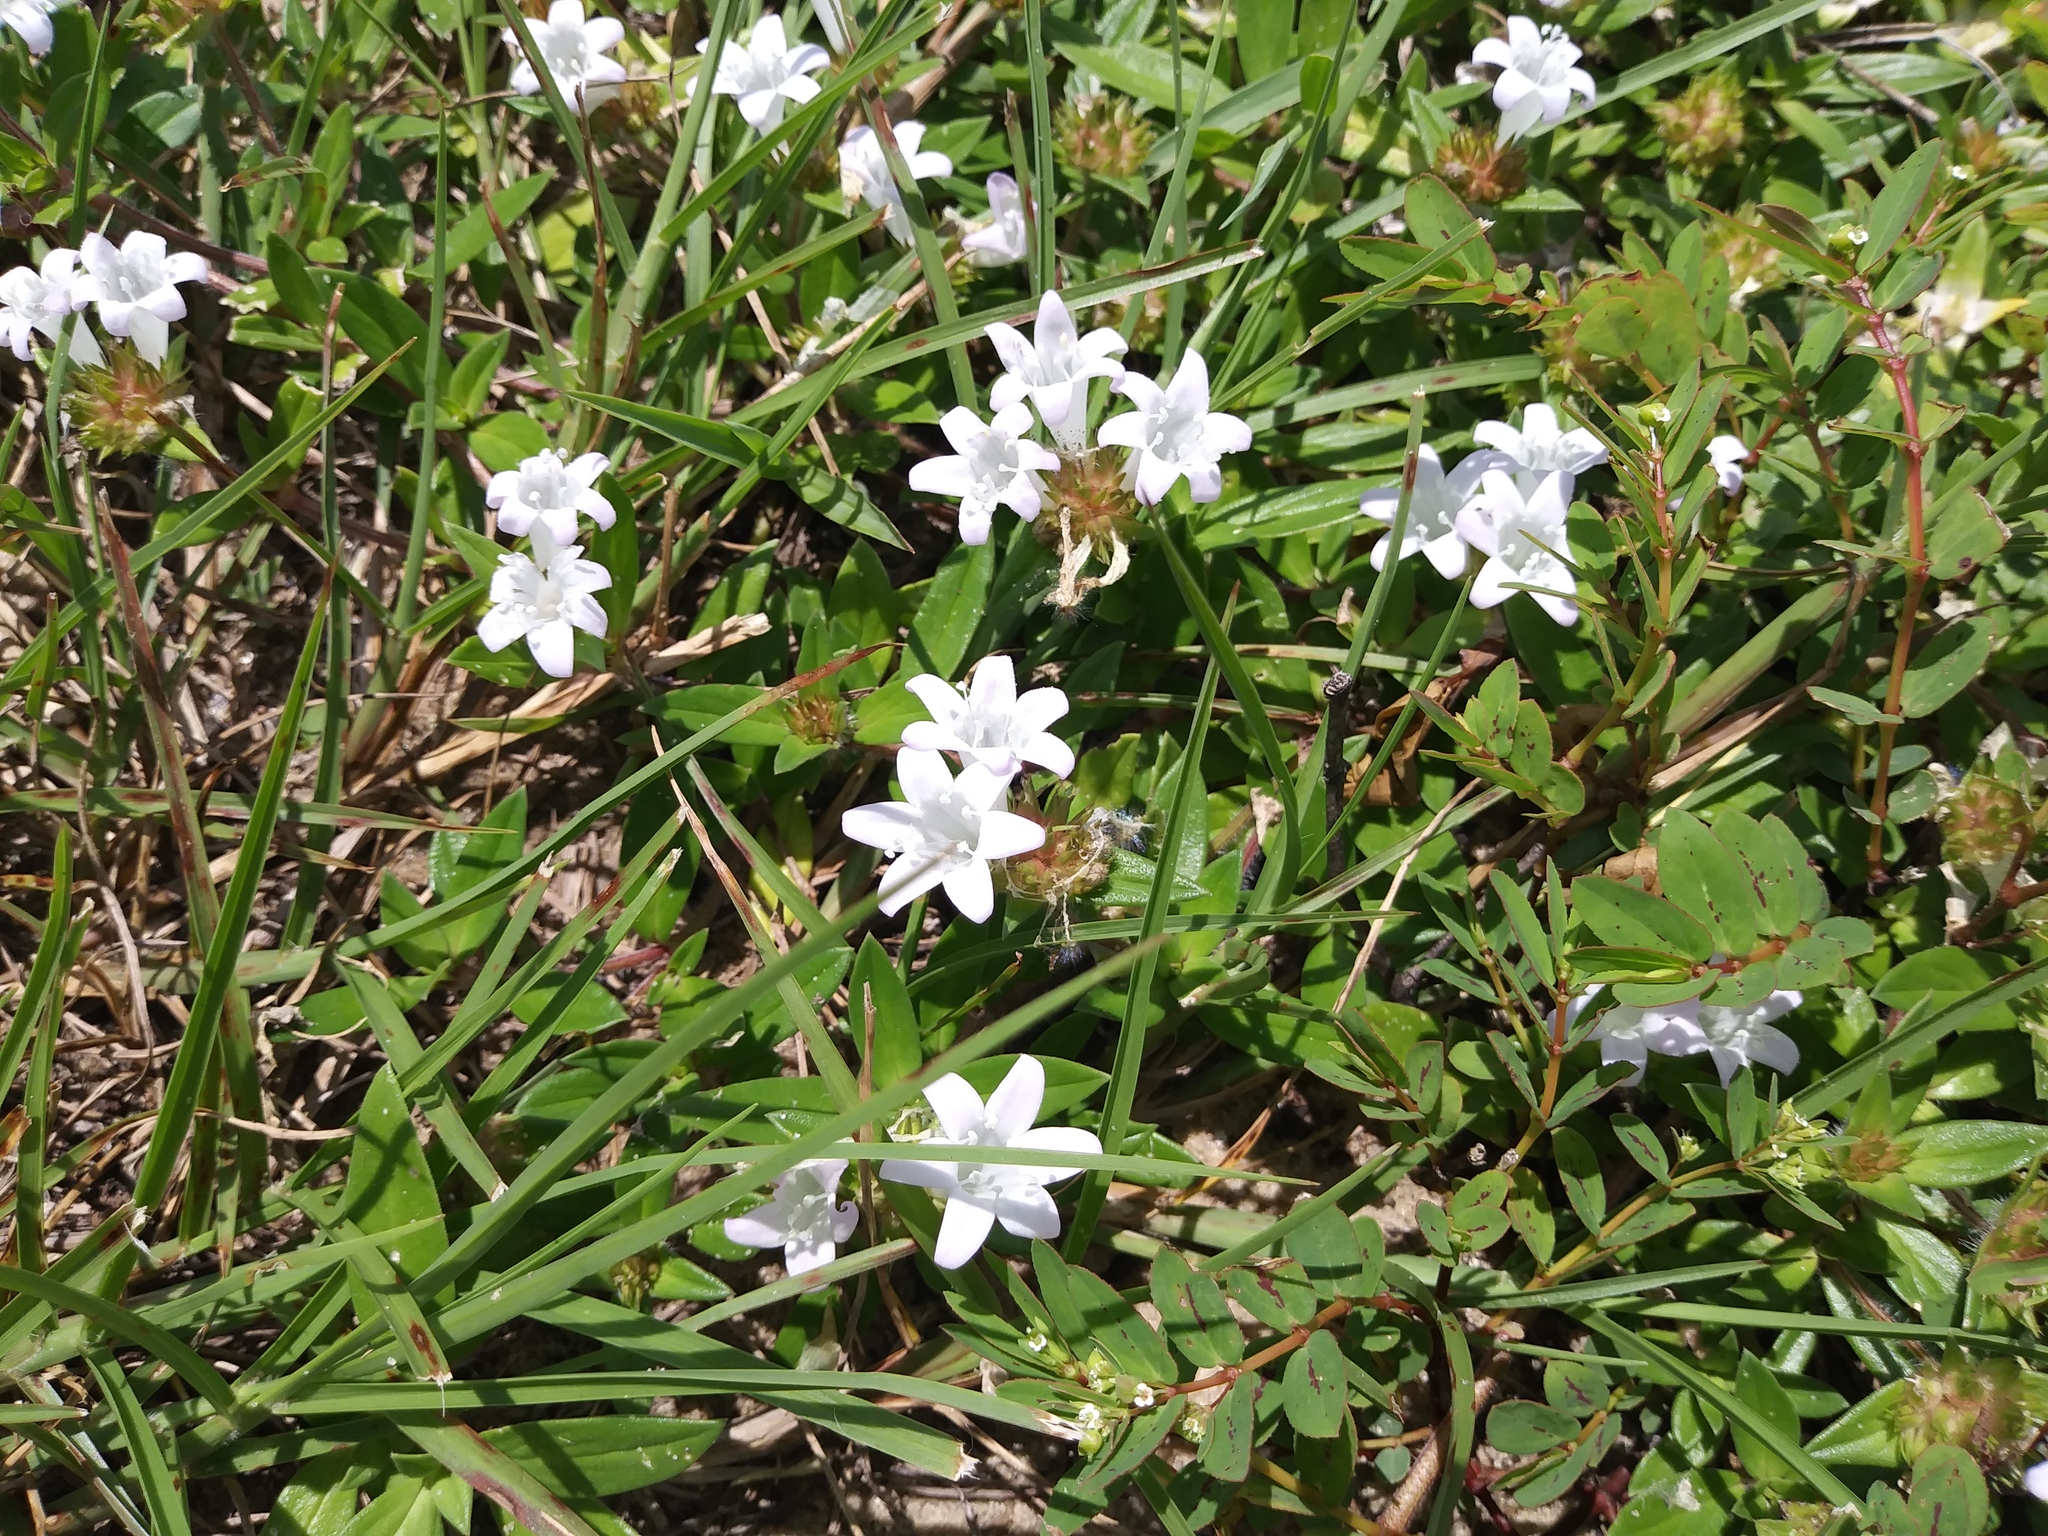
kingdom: Plantae
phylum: Tracheophyta
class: Magnoliopsida
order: Gentianales
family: Rubiaceae
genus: Richardia
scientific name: Richardia grandiflora
